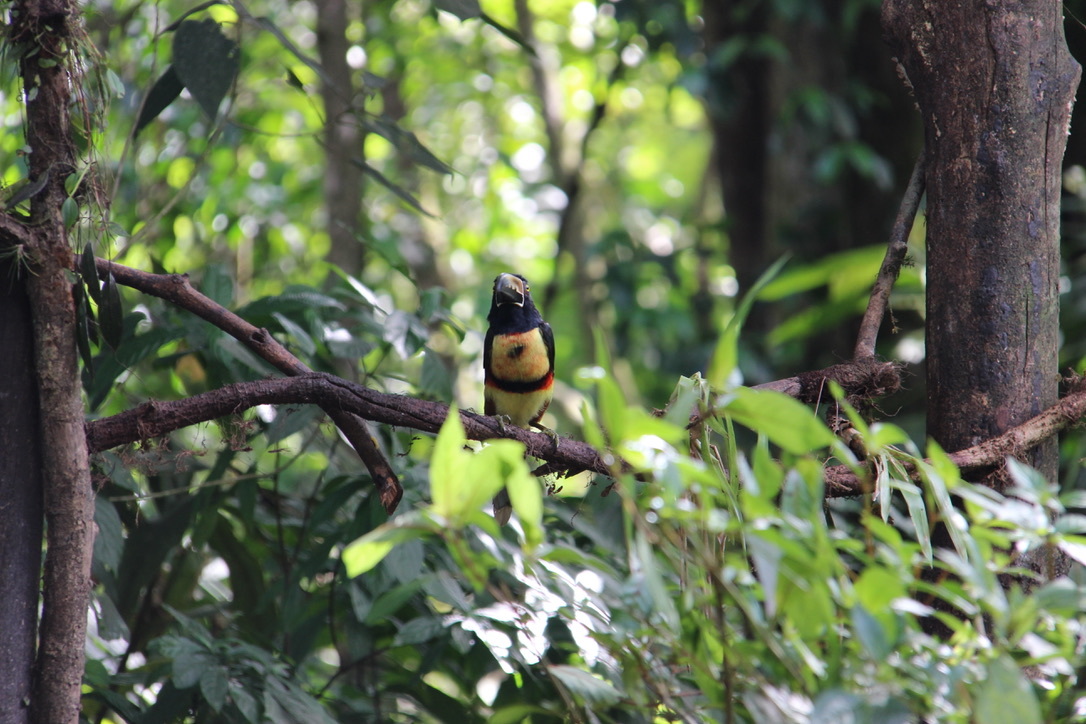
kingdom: Animalia
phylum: Chordata
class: Aves
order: Piciformes
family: Ramphastidae
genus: Pteroglossus
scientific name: Pteroglossus torquatus
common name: Collared aracari
